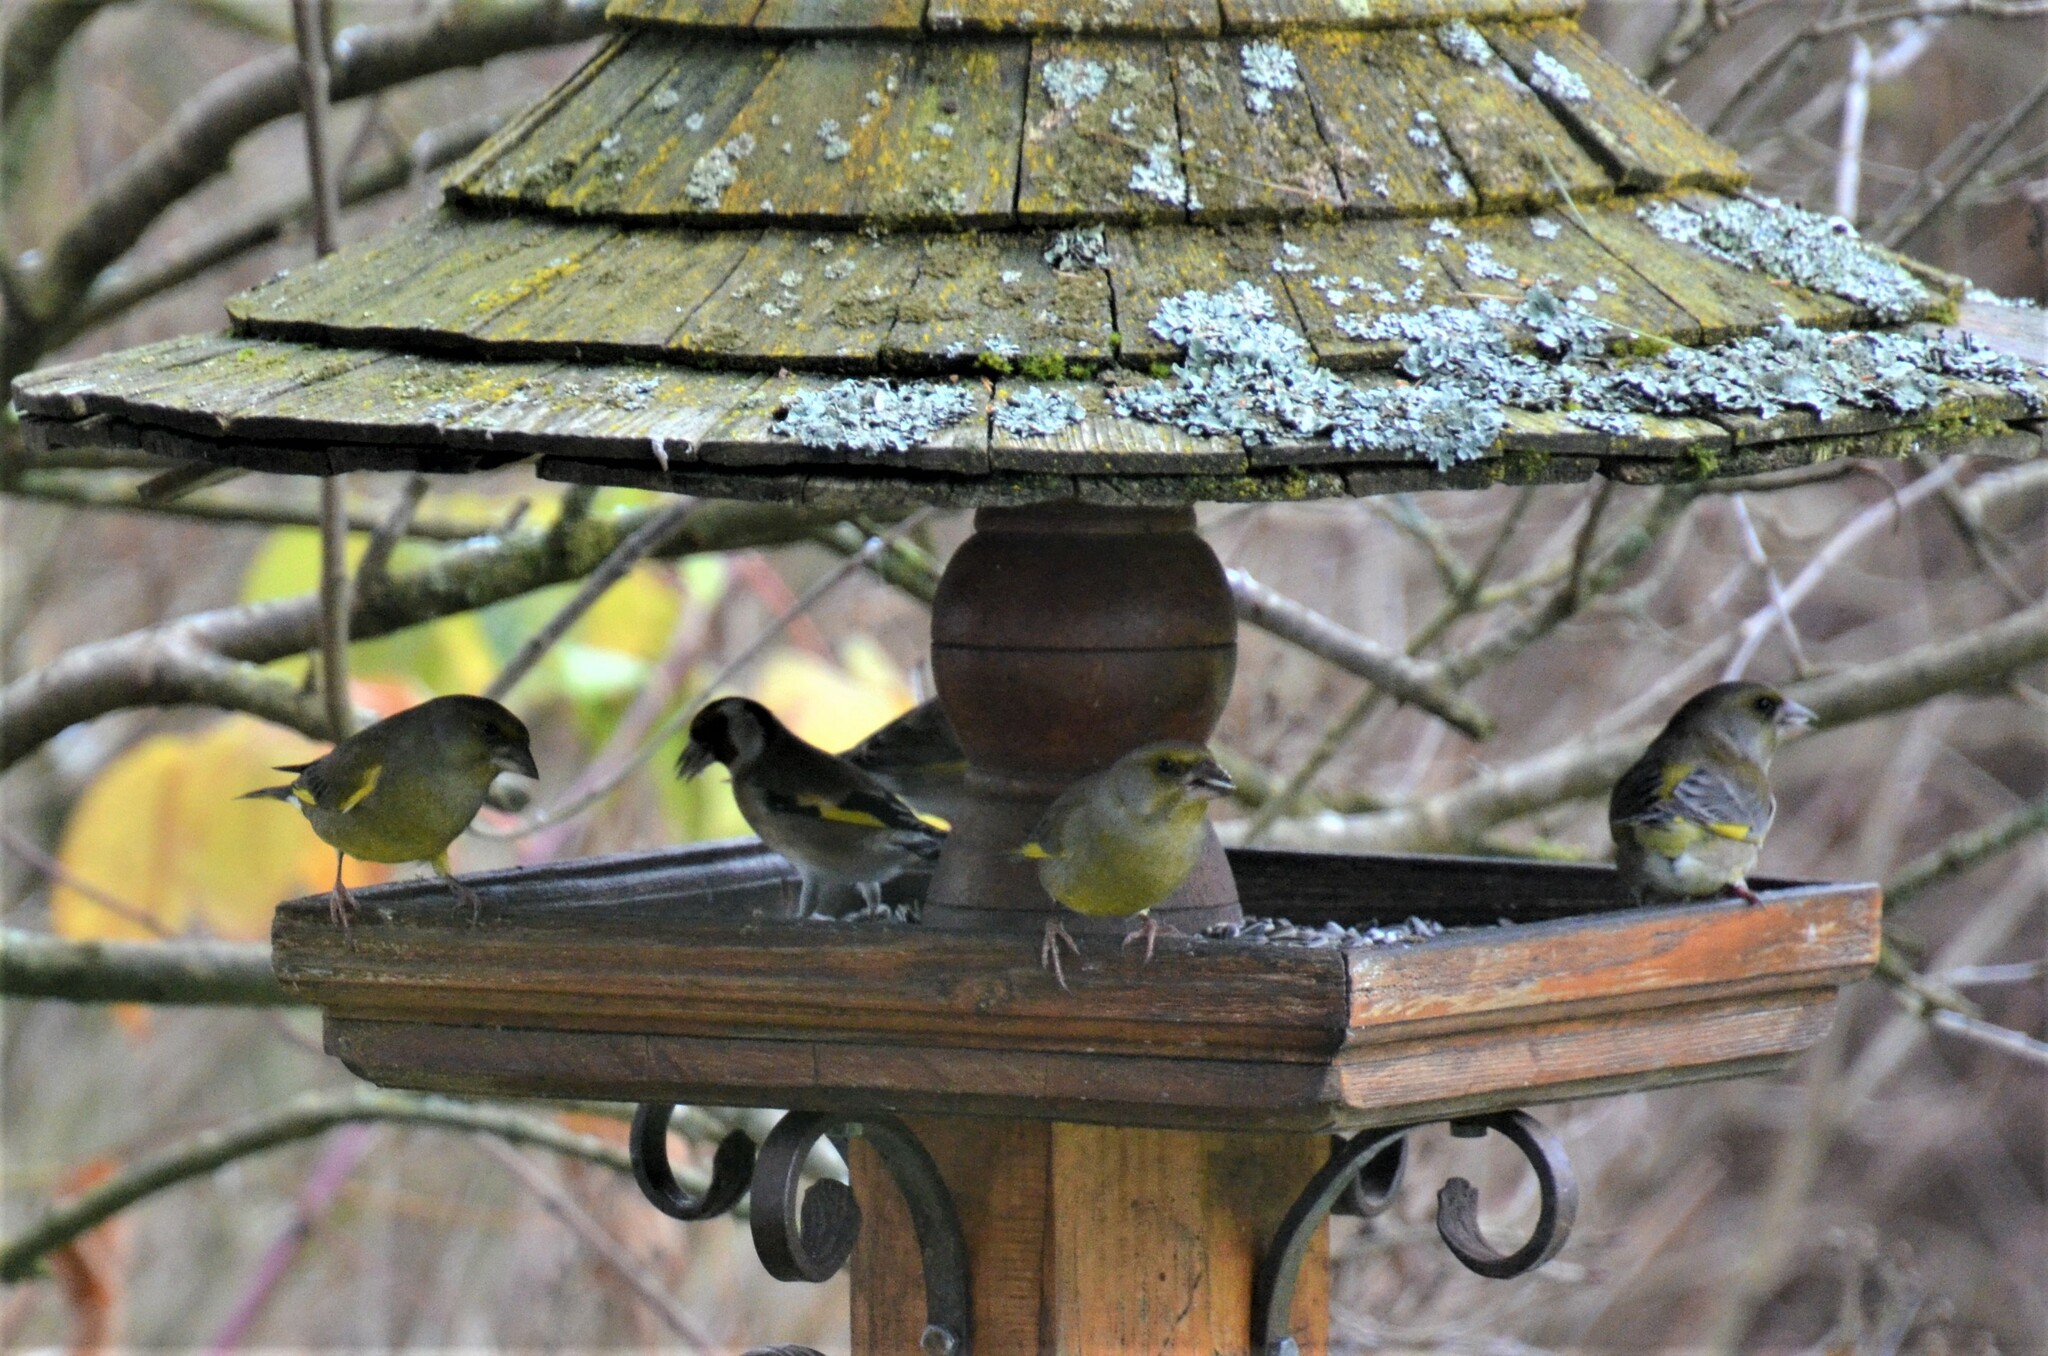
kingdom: Plantae
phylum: Tracheophyta
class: Liliopsida
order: Poales
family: Poaceae
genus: Chloris
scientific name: Chloris chloris
